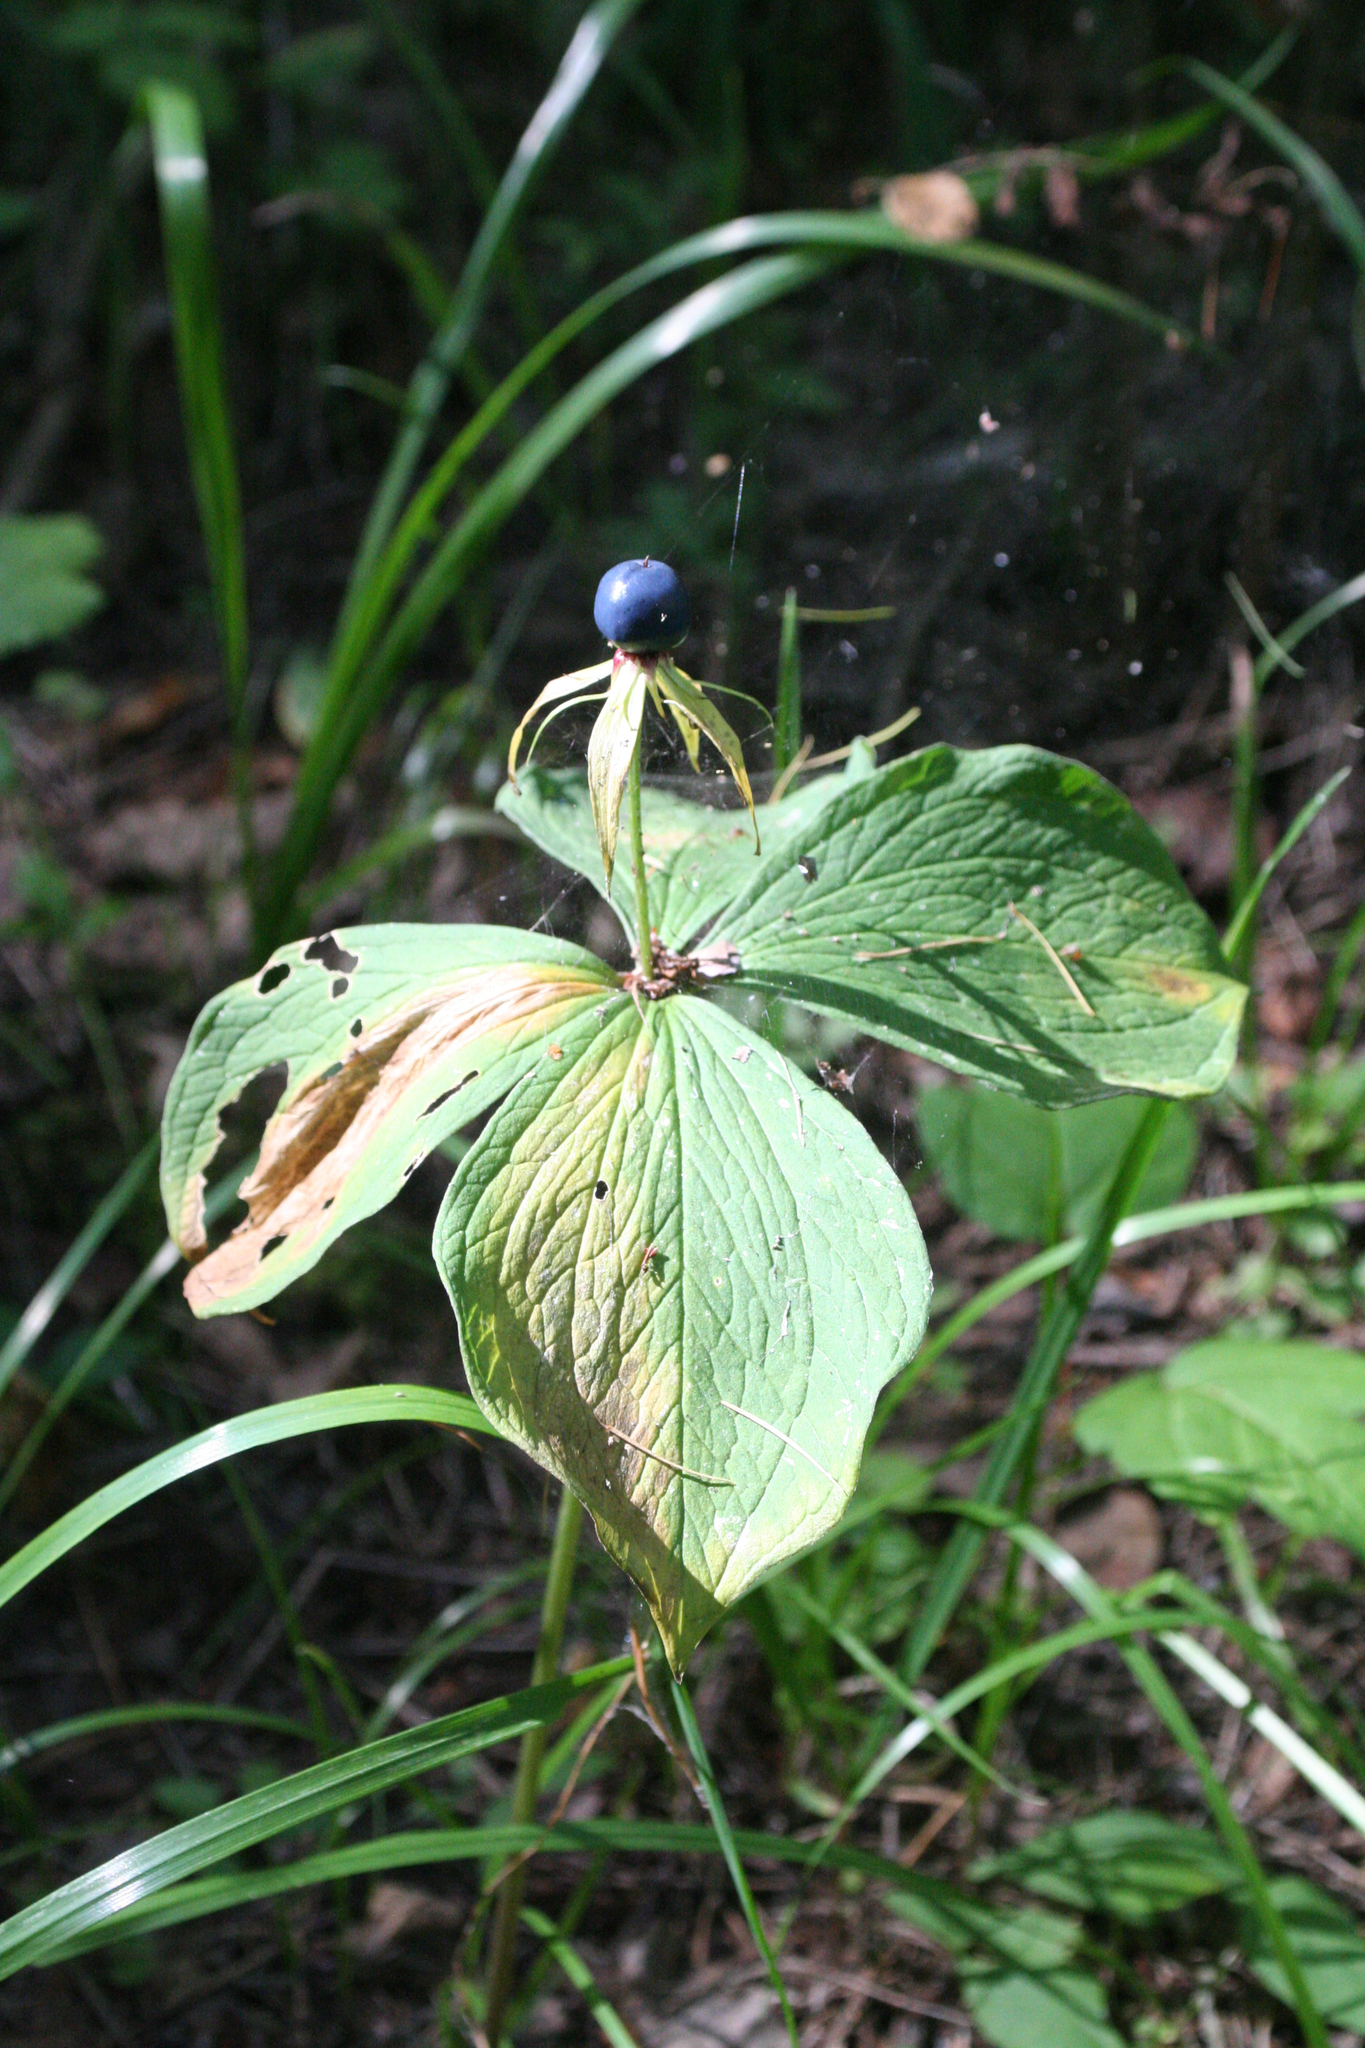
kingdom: Plantae
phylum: Tracheophyta
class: Liliopsida
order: Liliales
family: Melanthiaceae
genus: Paris
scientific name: Paris quadrifolia
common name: Herb-paris
